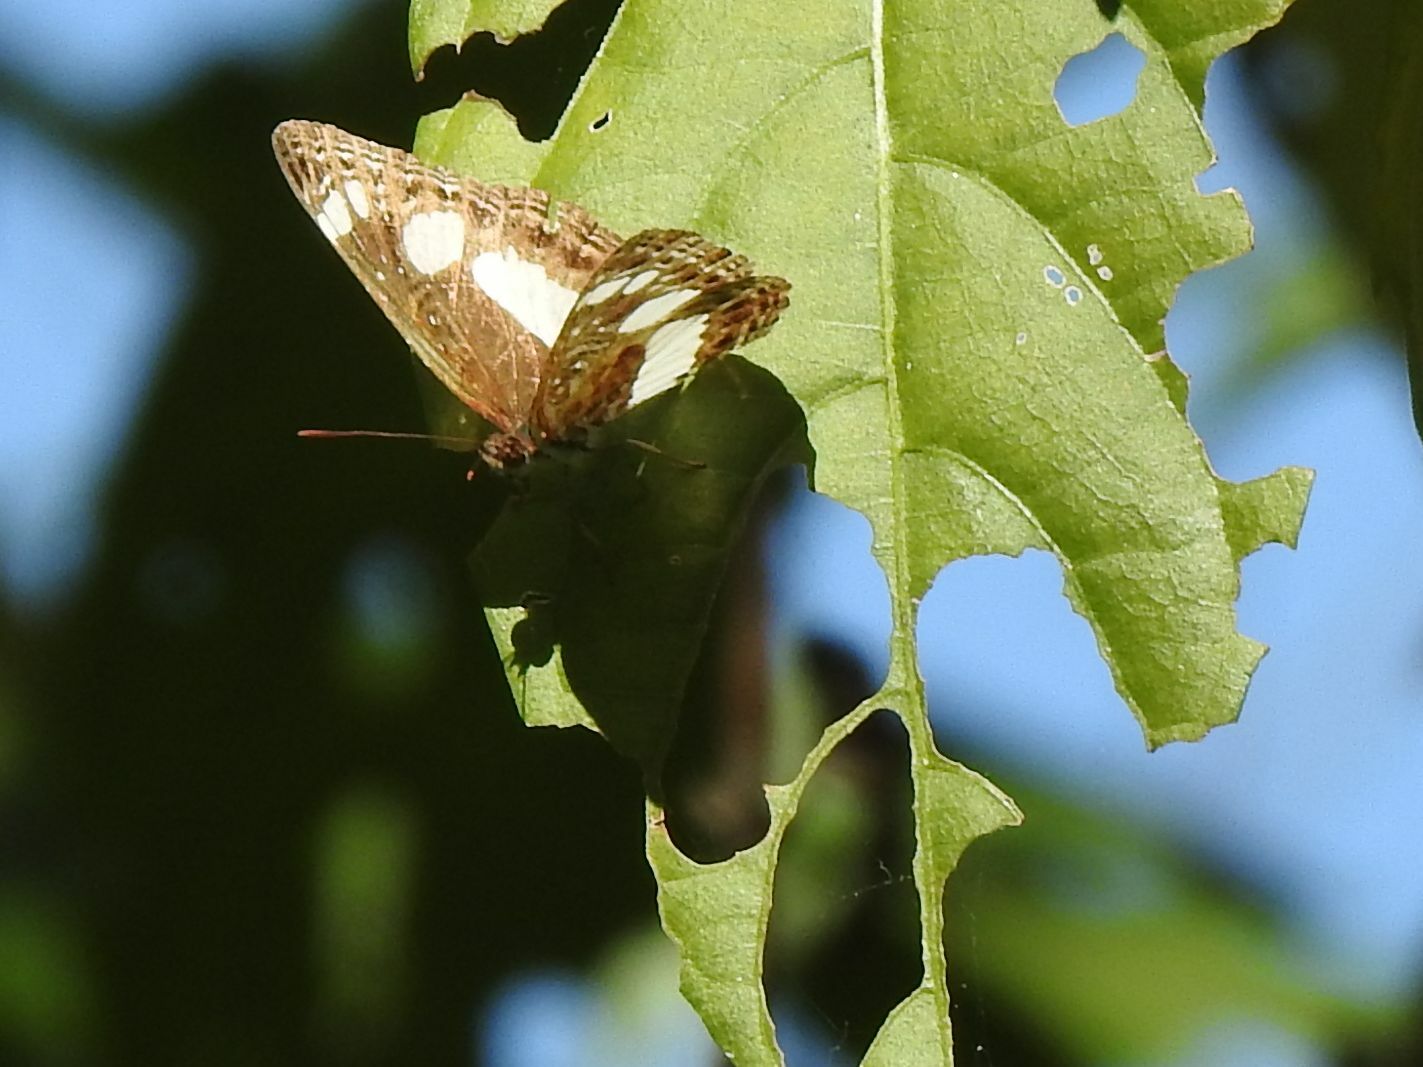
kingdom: Animalia
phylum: Arthropoda
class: Insecta
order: Lepidoptera
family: Nymphalidae
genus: Neptis
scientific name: Neptis saclava
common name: Small spotted sailor
